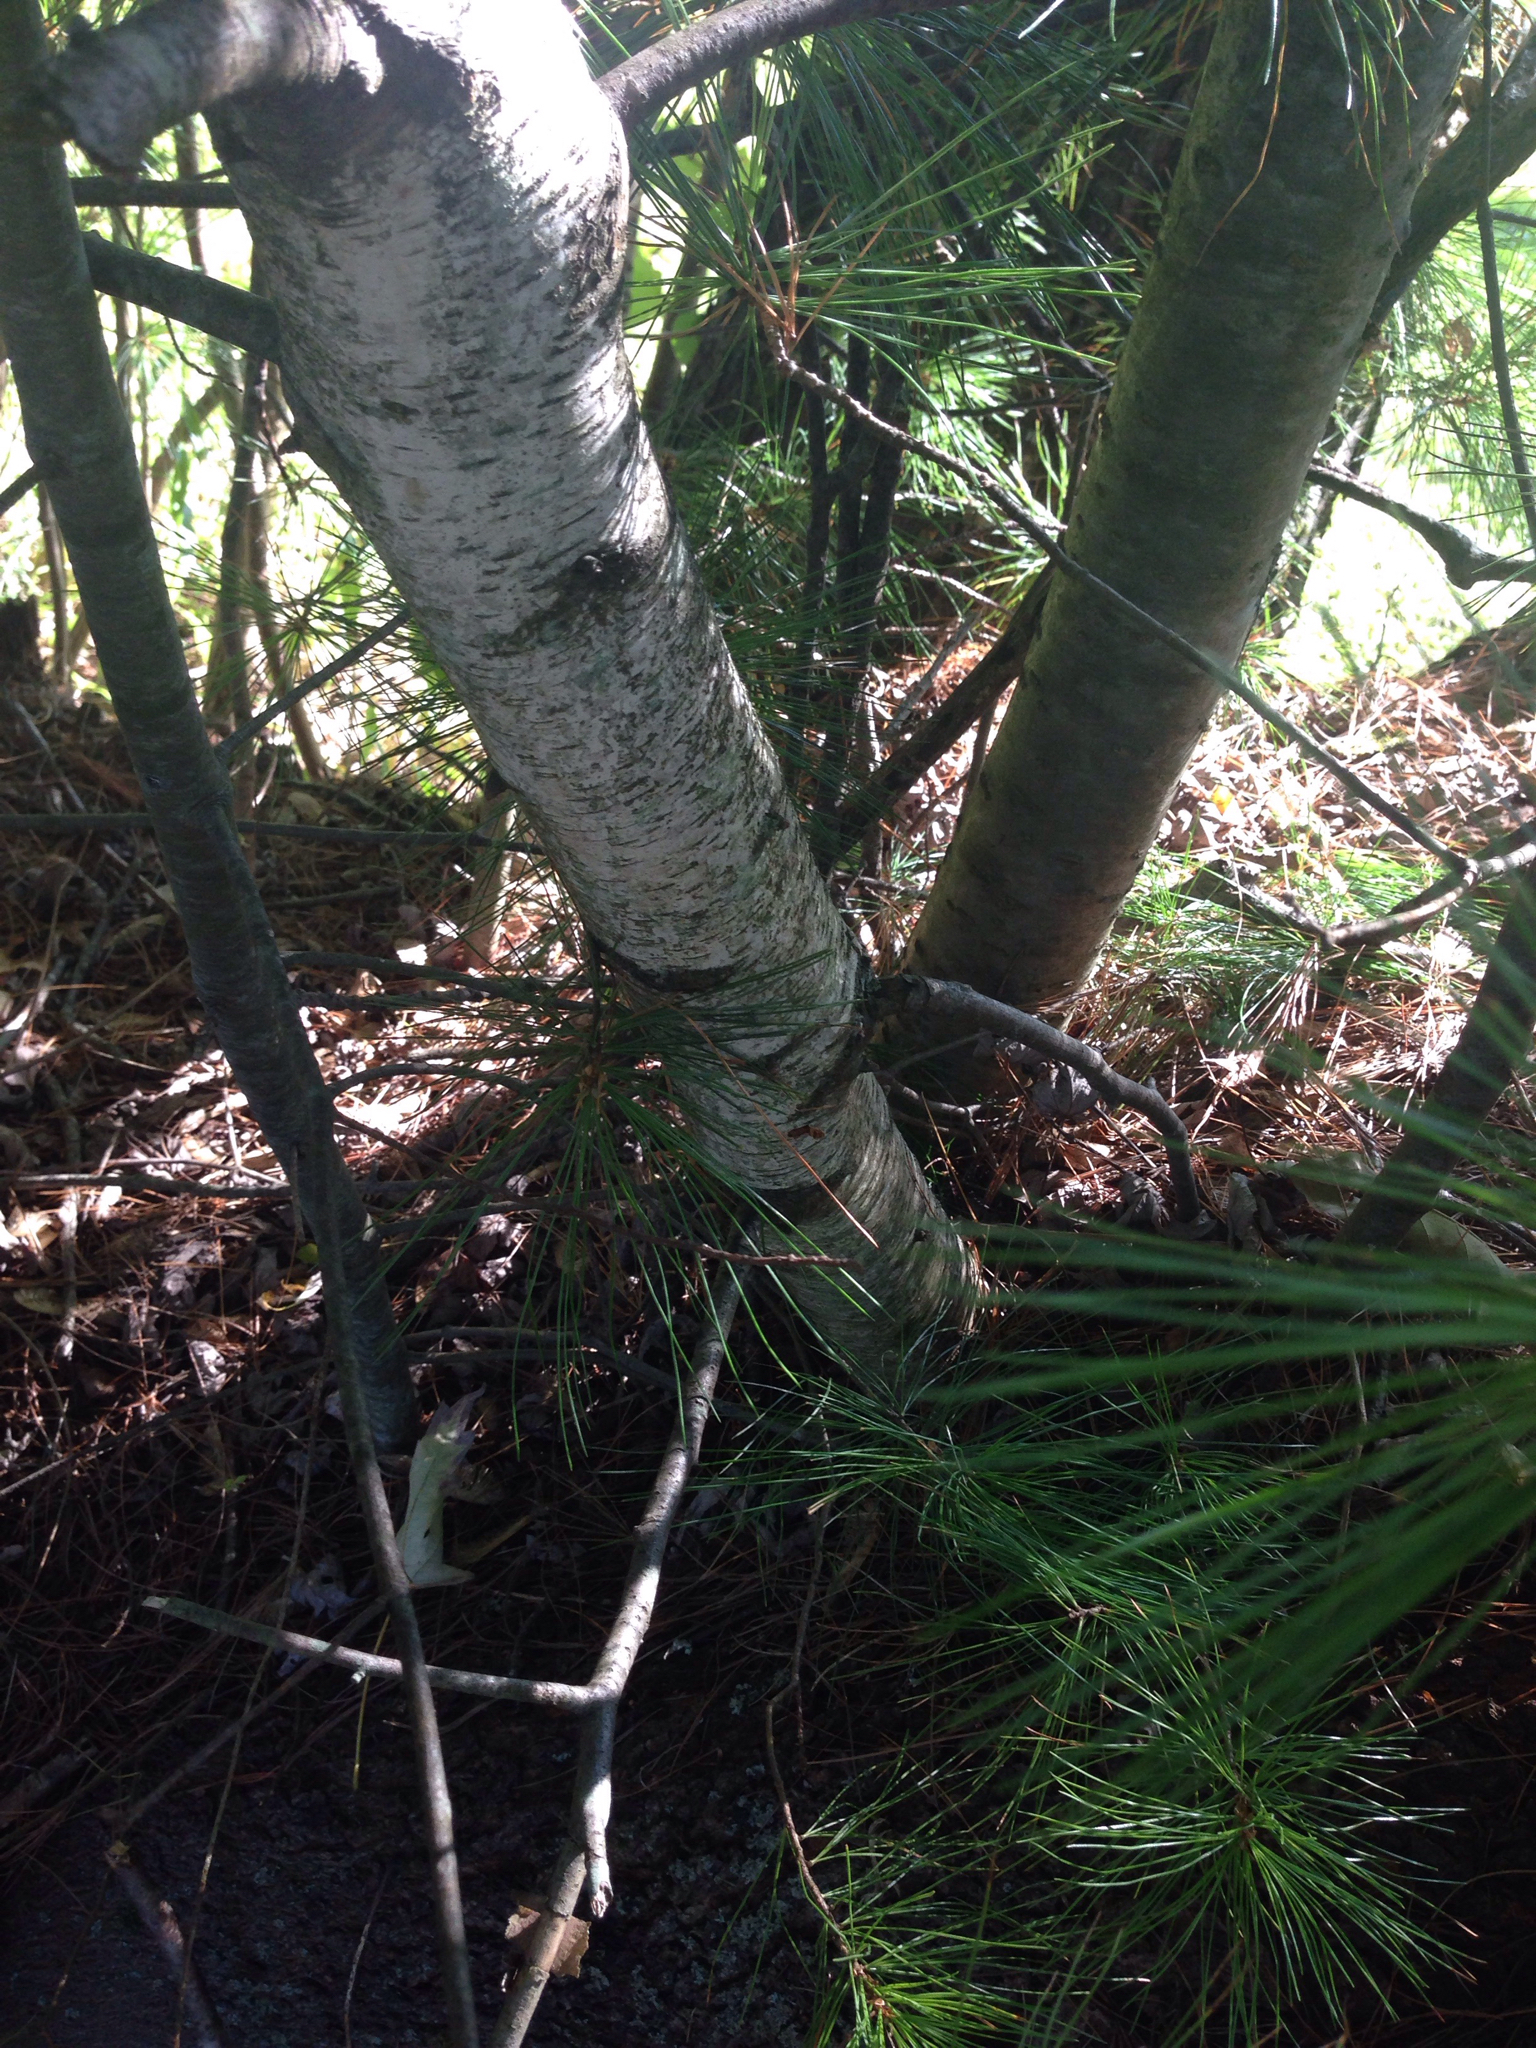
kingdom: Plantae
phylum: Tracheophyta
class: Magnoliopsida
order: Fagales
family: Betulaceae
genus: Betula
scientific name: Betula populifolia
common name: Fire birch
